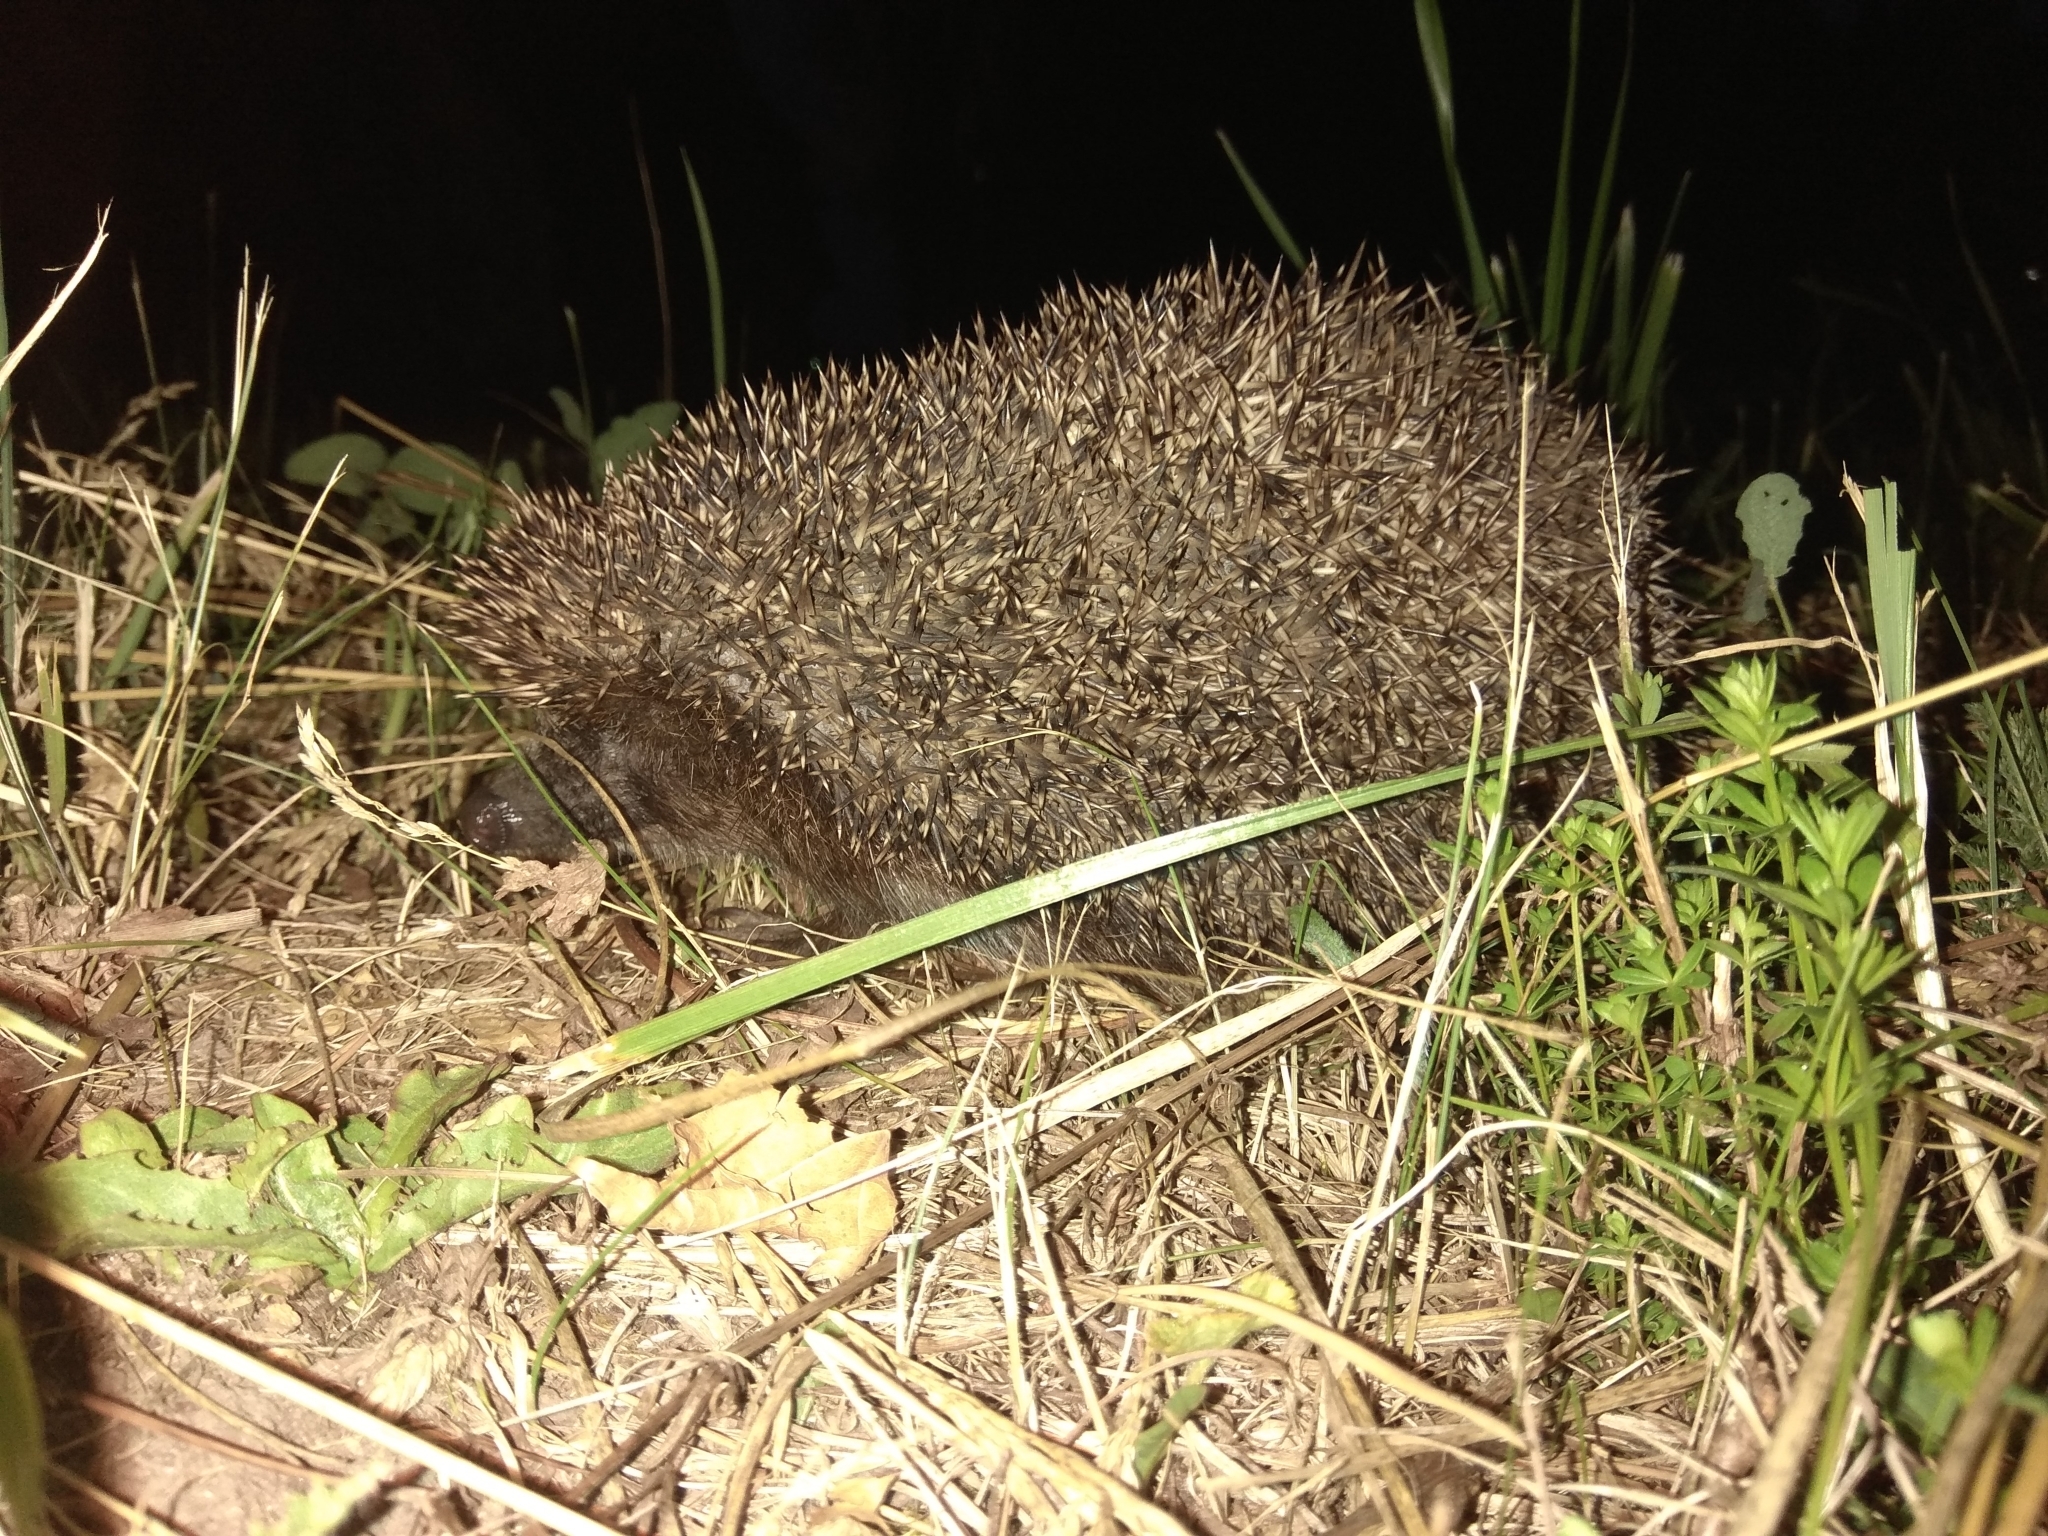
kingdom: Animalia
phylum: Chordata
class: Mammalia
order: Erinaceomorpha
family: Erinaceidae
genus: Erinaceus
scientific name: Erinaceus roumanicus
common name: Northern white-breasted hedgehog
